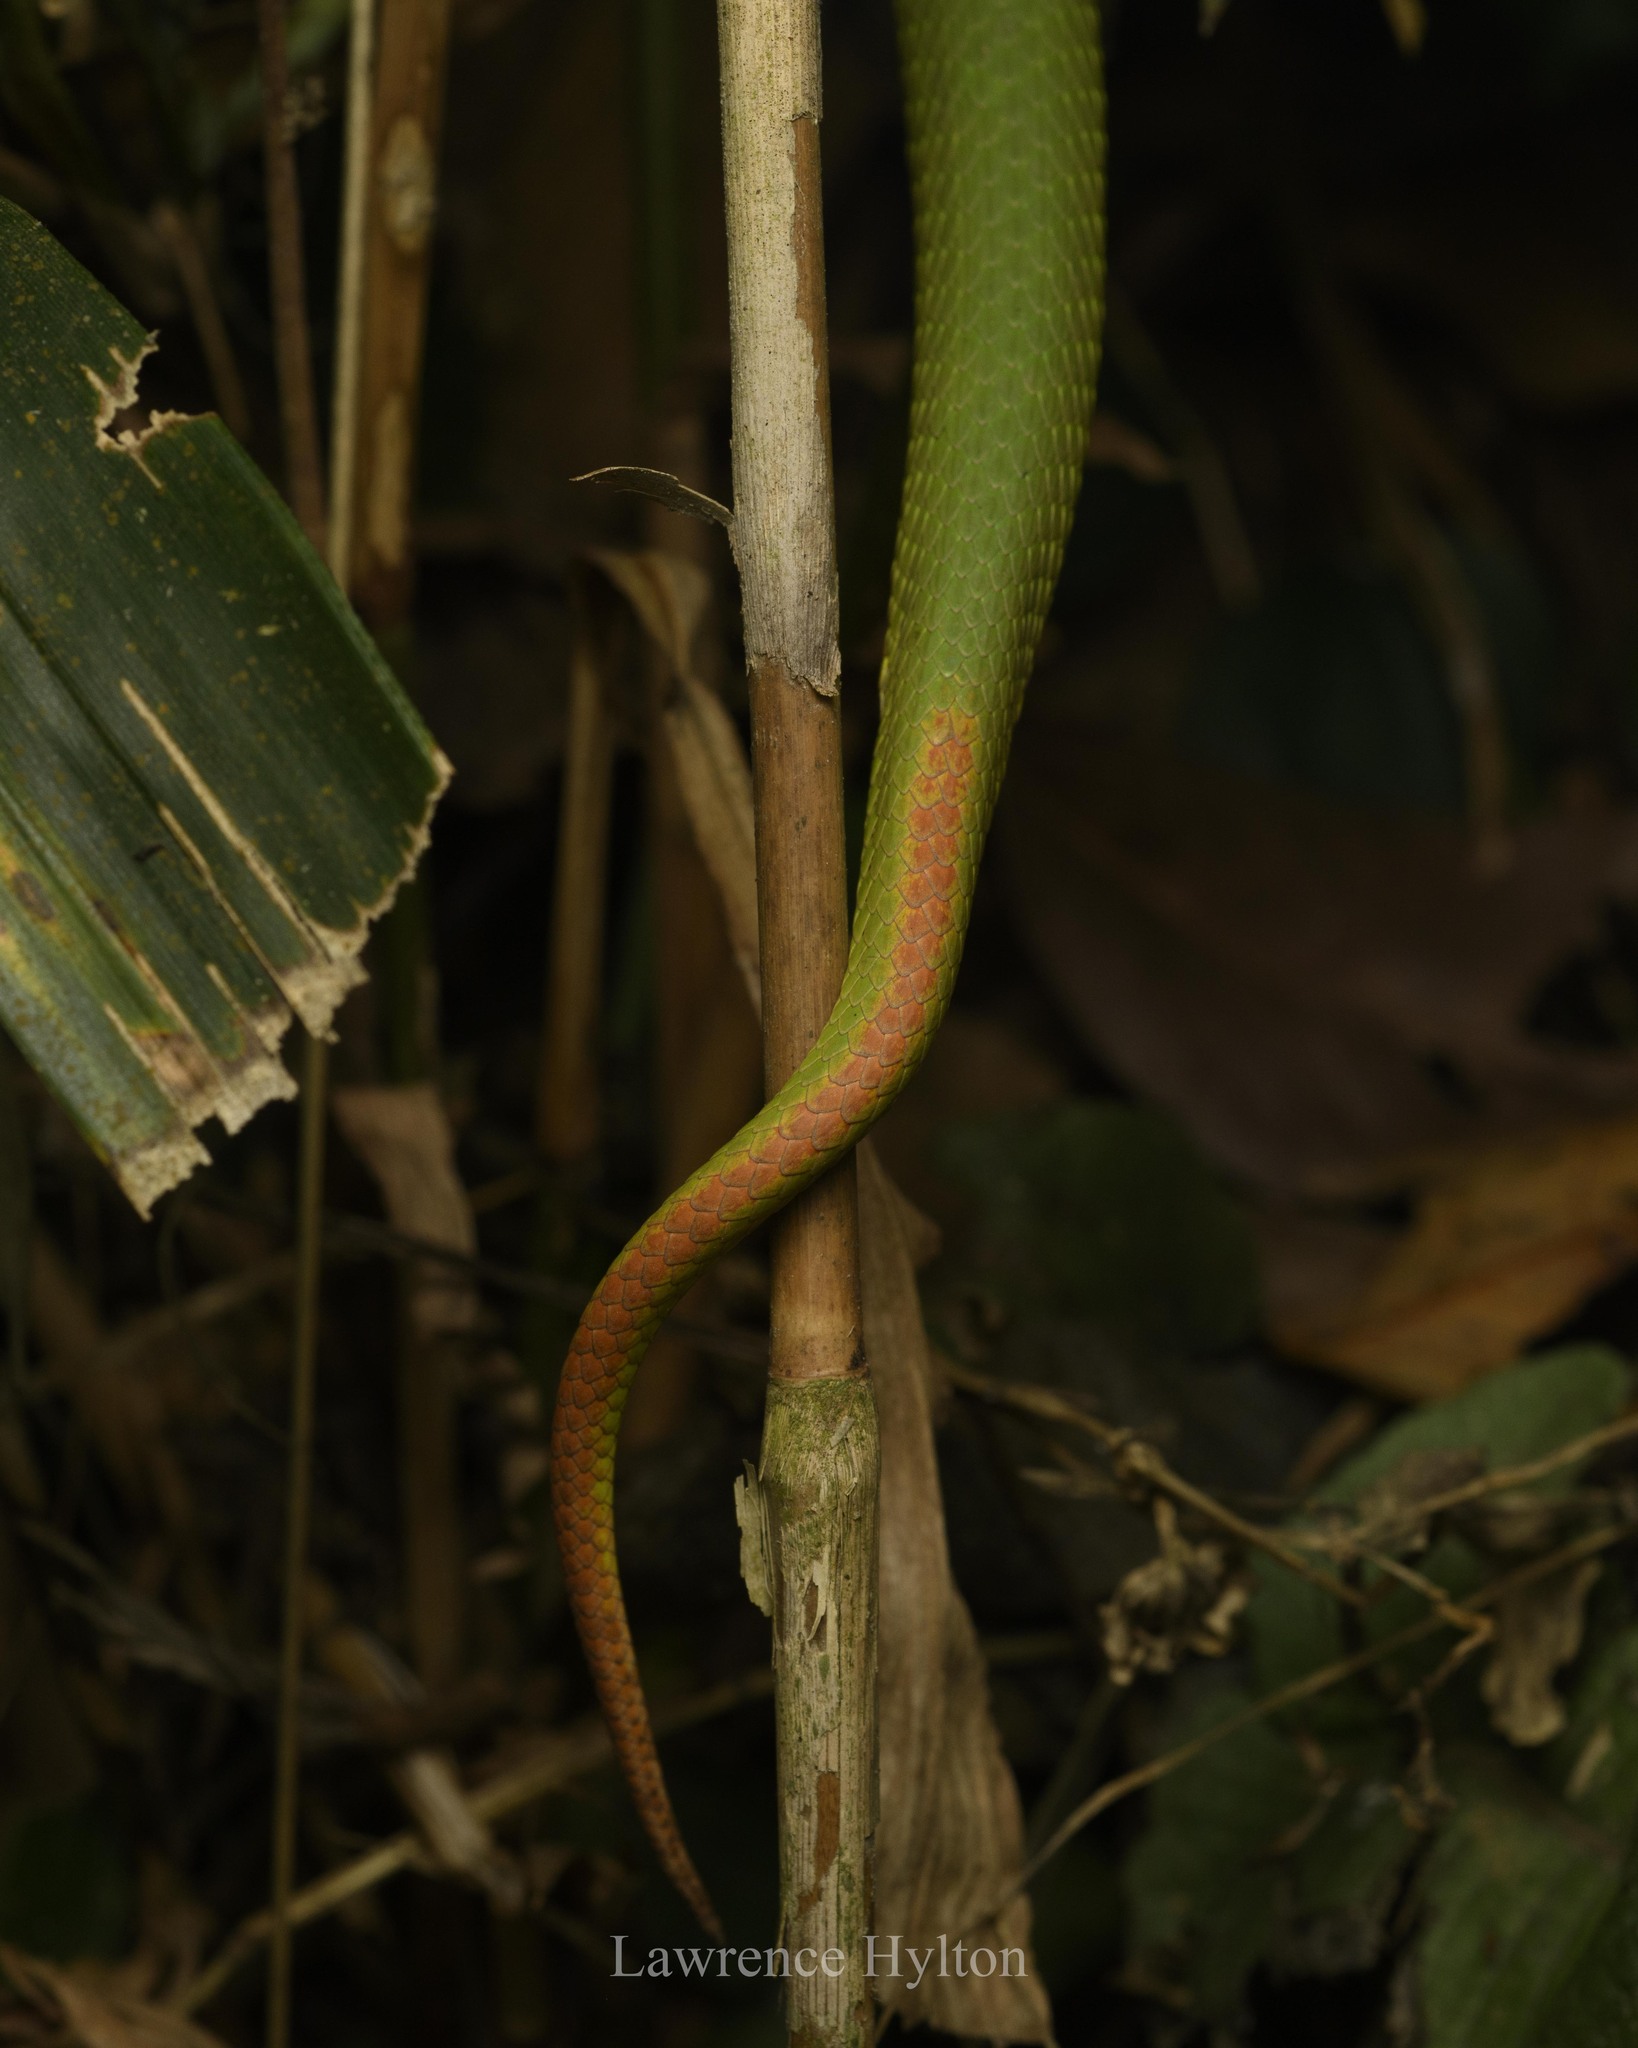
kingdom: Animalia
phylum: Chordata
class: Squamata
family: Viperidae
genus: Trimeresurus
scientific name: Trimeresurus albolabris
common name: White-lipped pitviper
